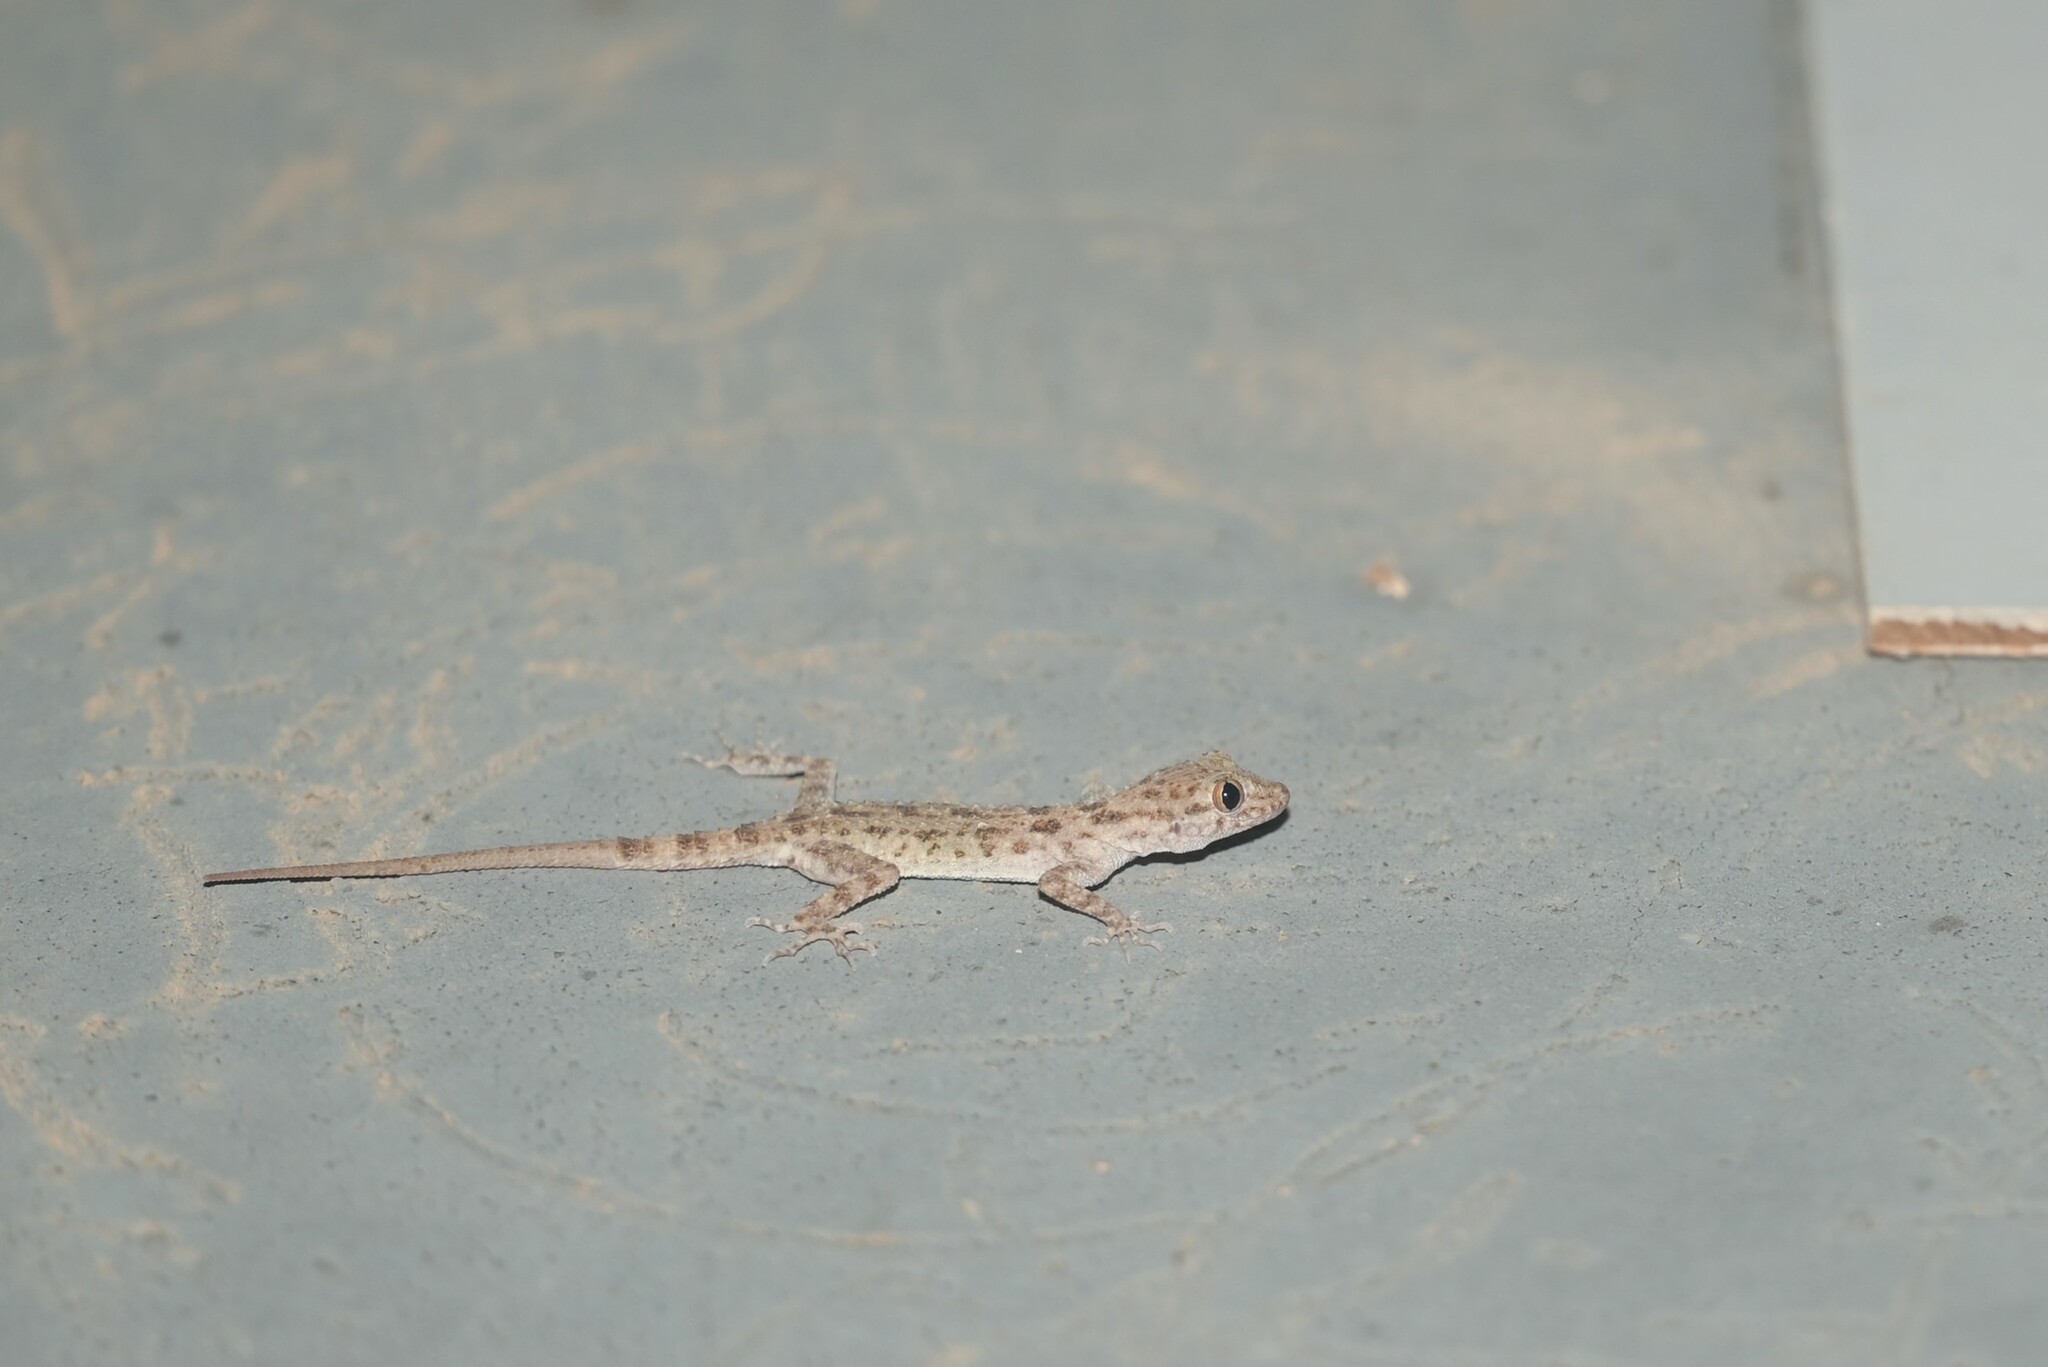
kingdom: Animalia
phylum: Chordata
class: Squamata
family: Gekkonidae
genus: Cyrtopodion
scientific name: Cyrtopodion scabrum
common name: Rough-tailed gecko
